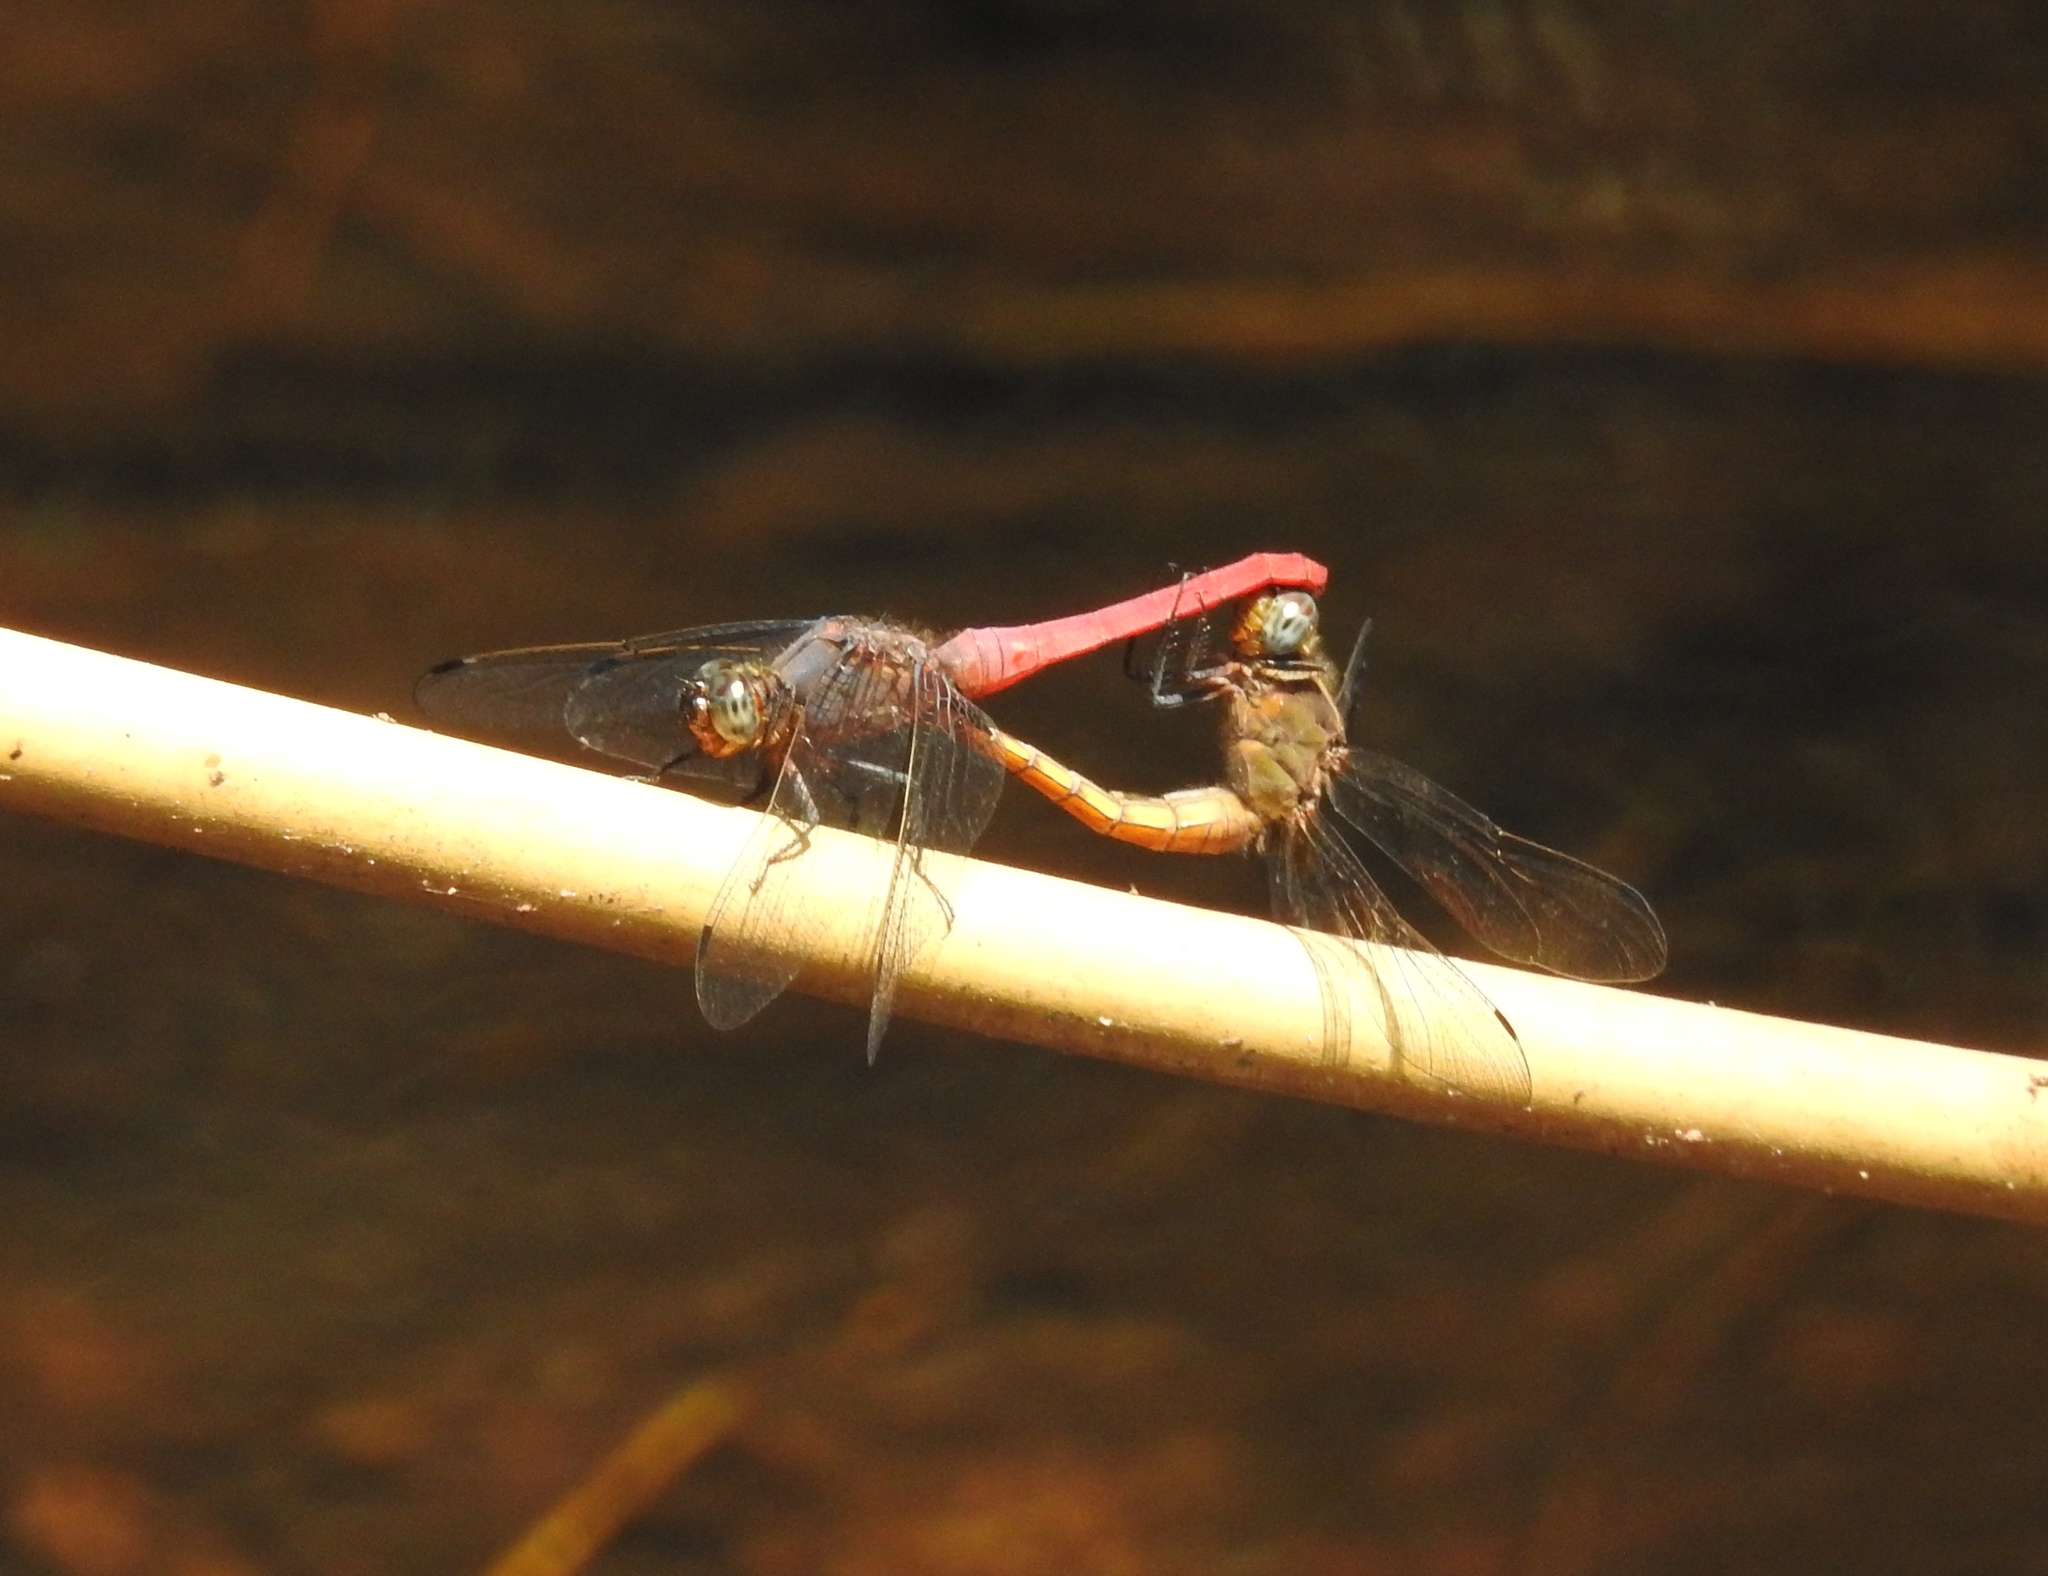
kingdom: Animalia
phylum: Arthropoda
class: Insecta
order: Odonata
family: Libellulidae
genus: Orthetrum
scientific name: Orthetrum pruinosum
